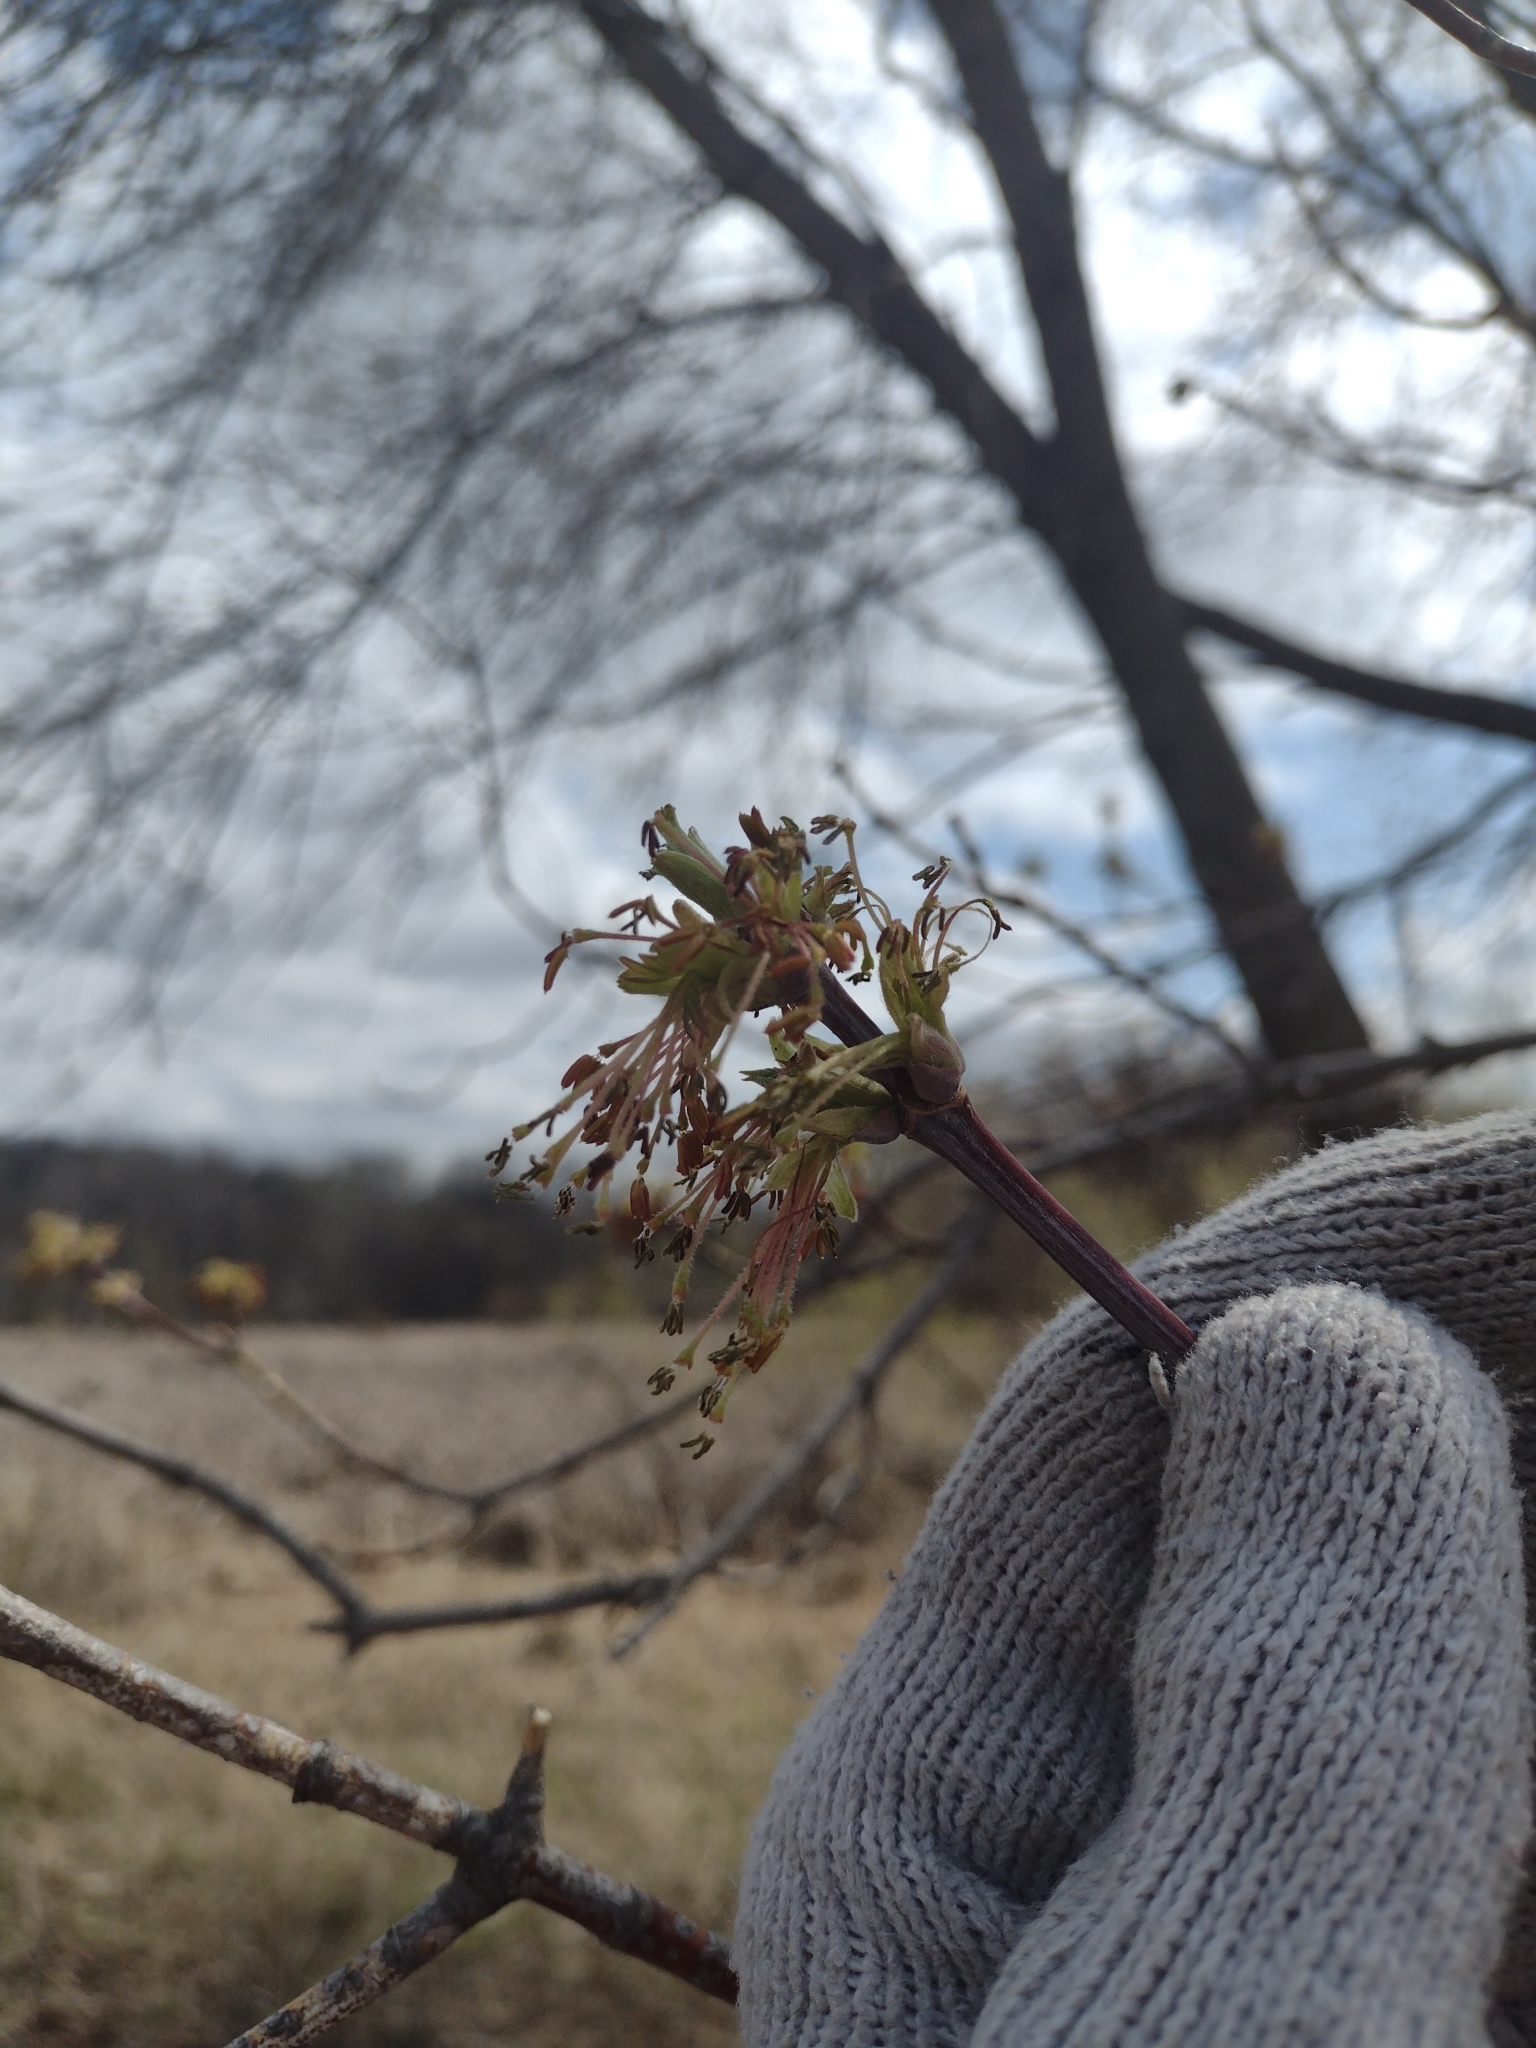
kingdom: Plantae
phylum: Tracheophyta
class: Magnoliopsida
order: Sapindales
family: Sapindaceae
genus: Acer
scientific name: Acer negundo
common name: Ashleaf maple
